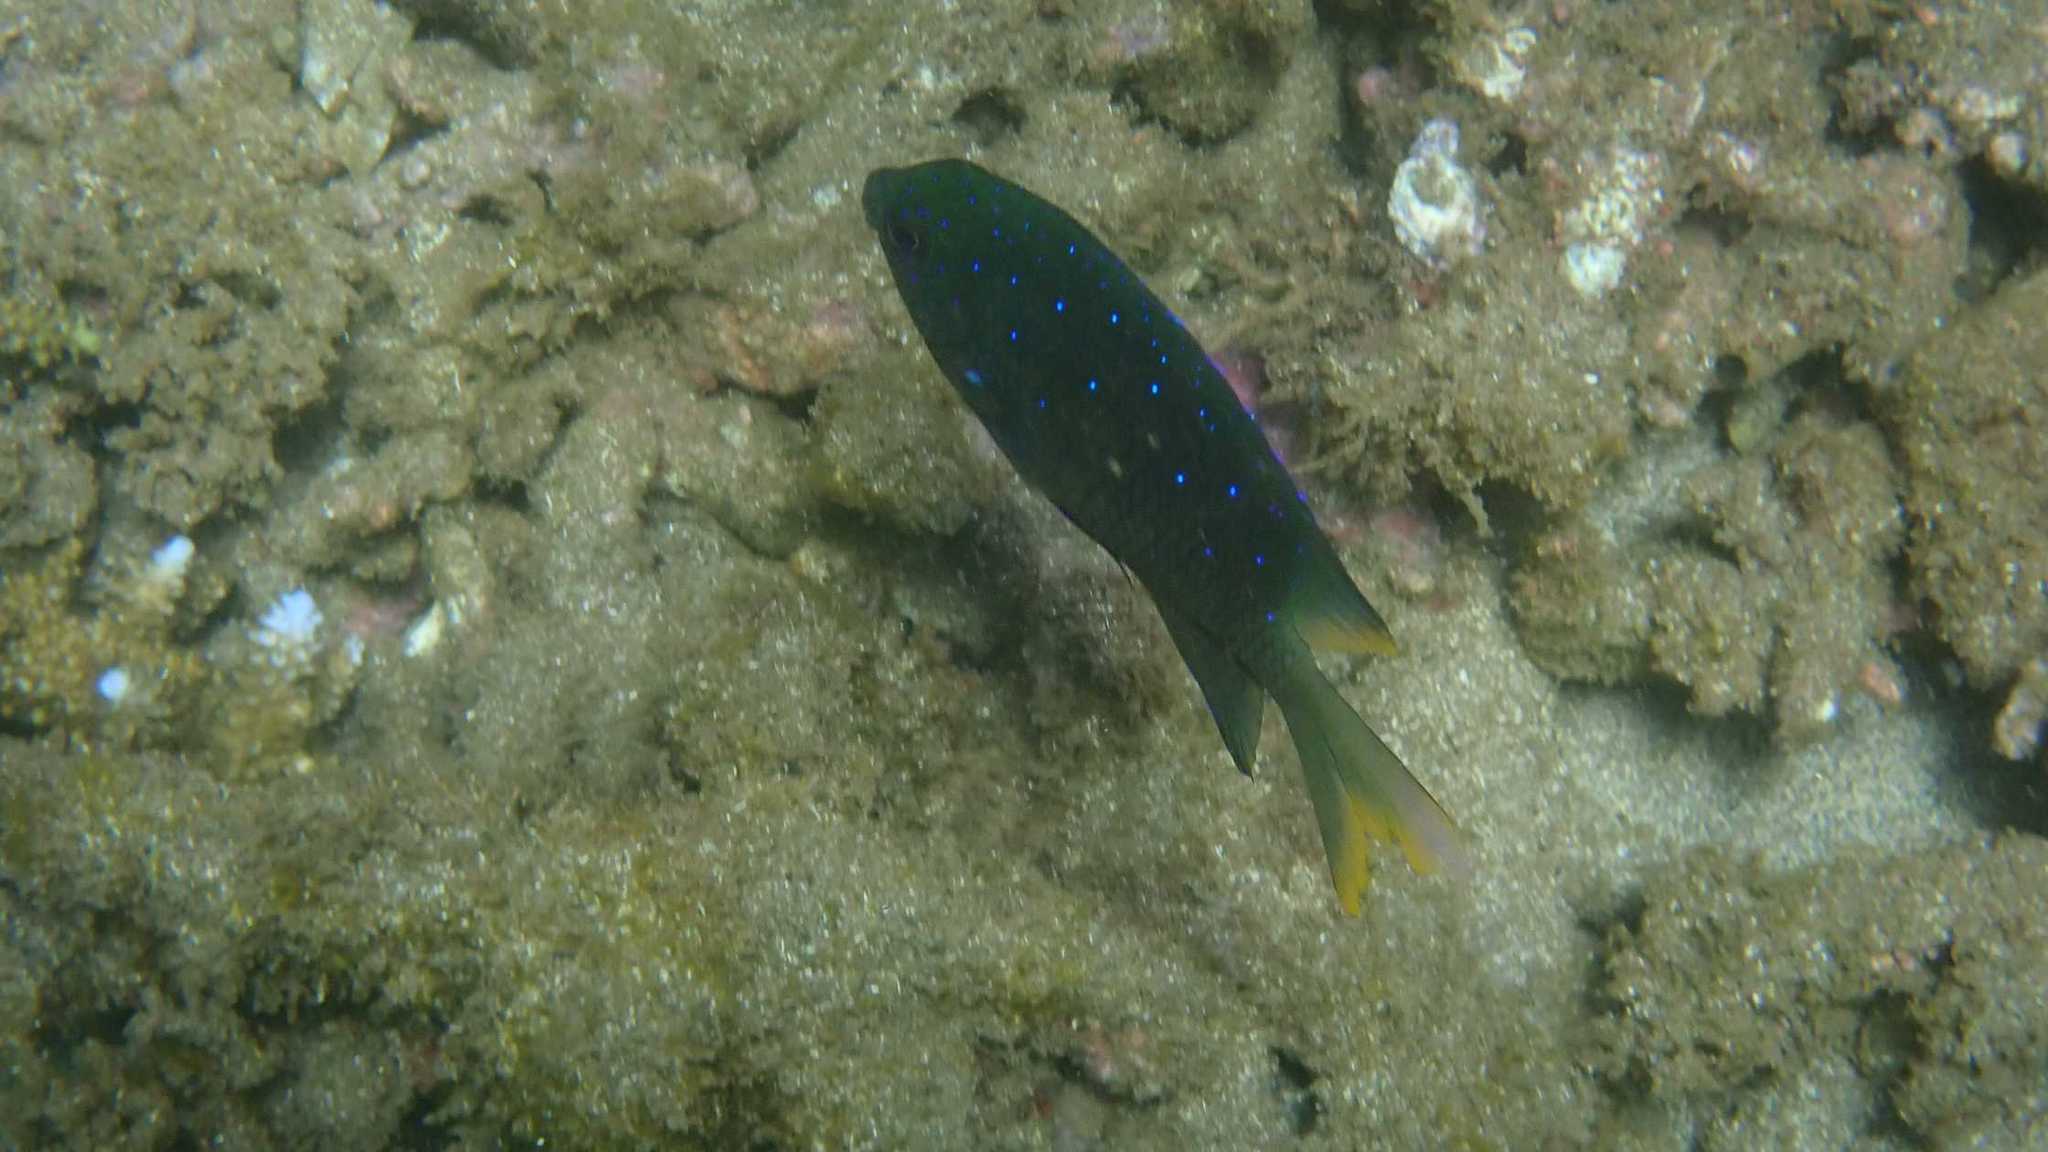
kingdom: Animalia
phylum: Chordata
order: Perciformes
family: Pomacentridae
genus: Stegastes
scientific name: Stegastes pelicieri
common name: Mauritian gregory
